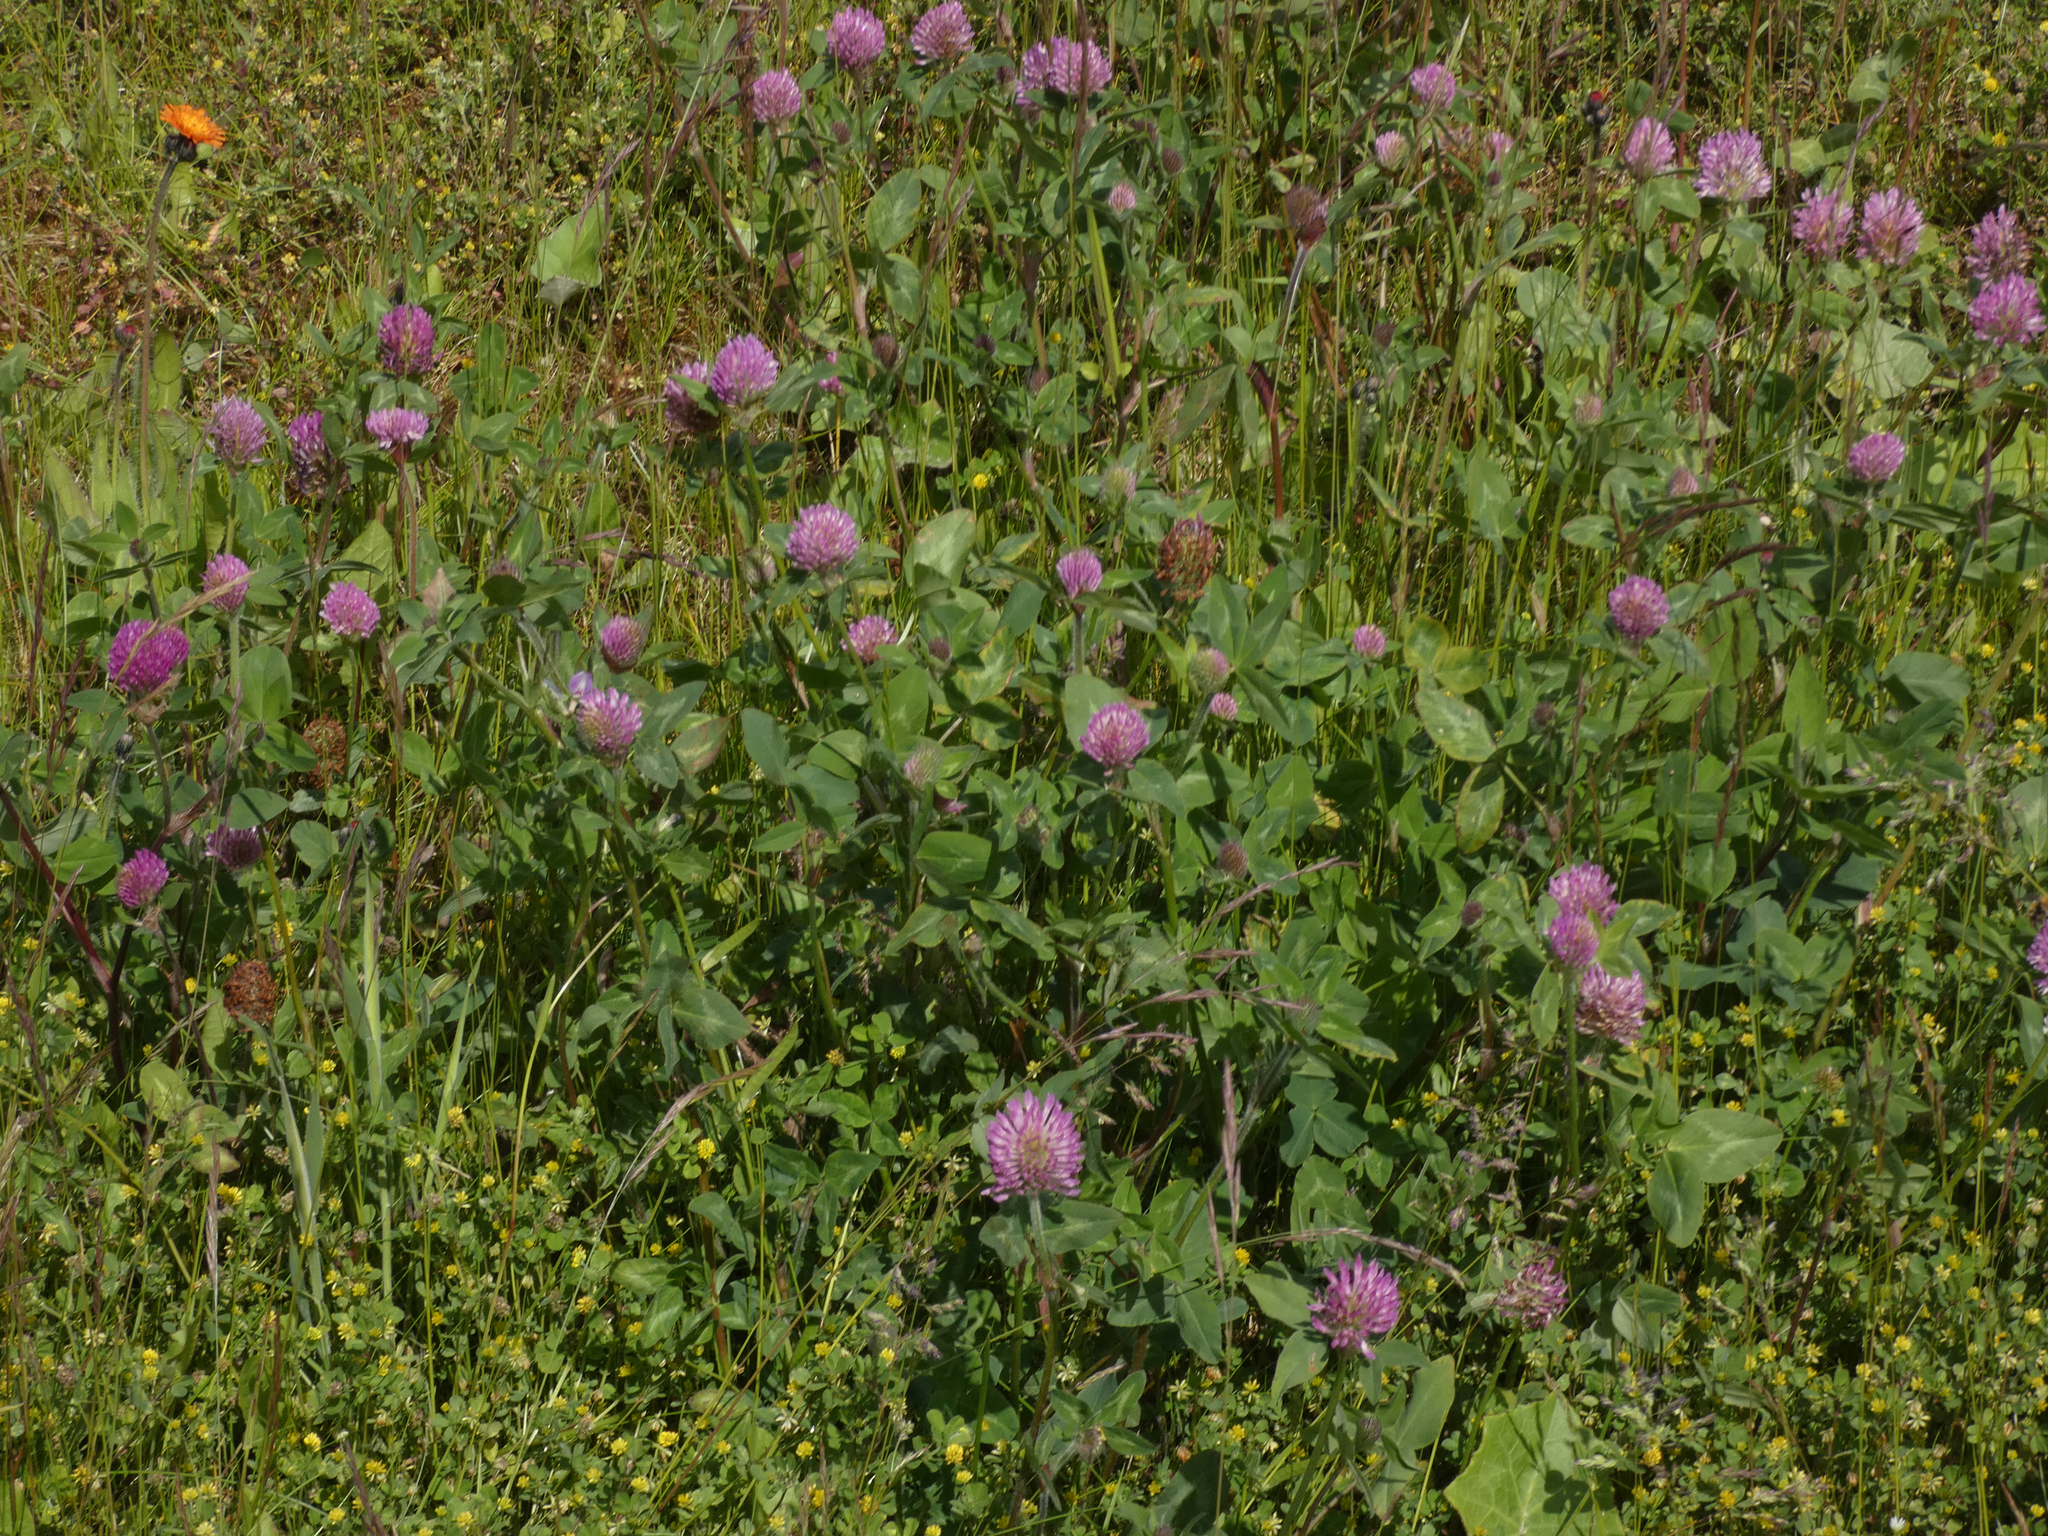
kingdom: Plantae
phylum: Tracheophyta
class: Magnoliopsida
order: Fabales
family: Fabaceae
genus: Trifolium
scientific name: Trifolium pratense
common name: Red clover
